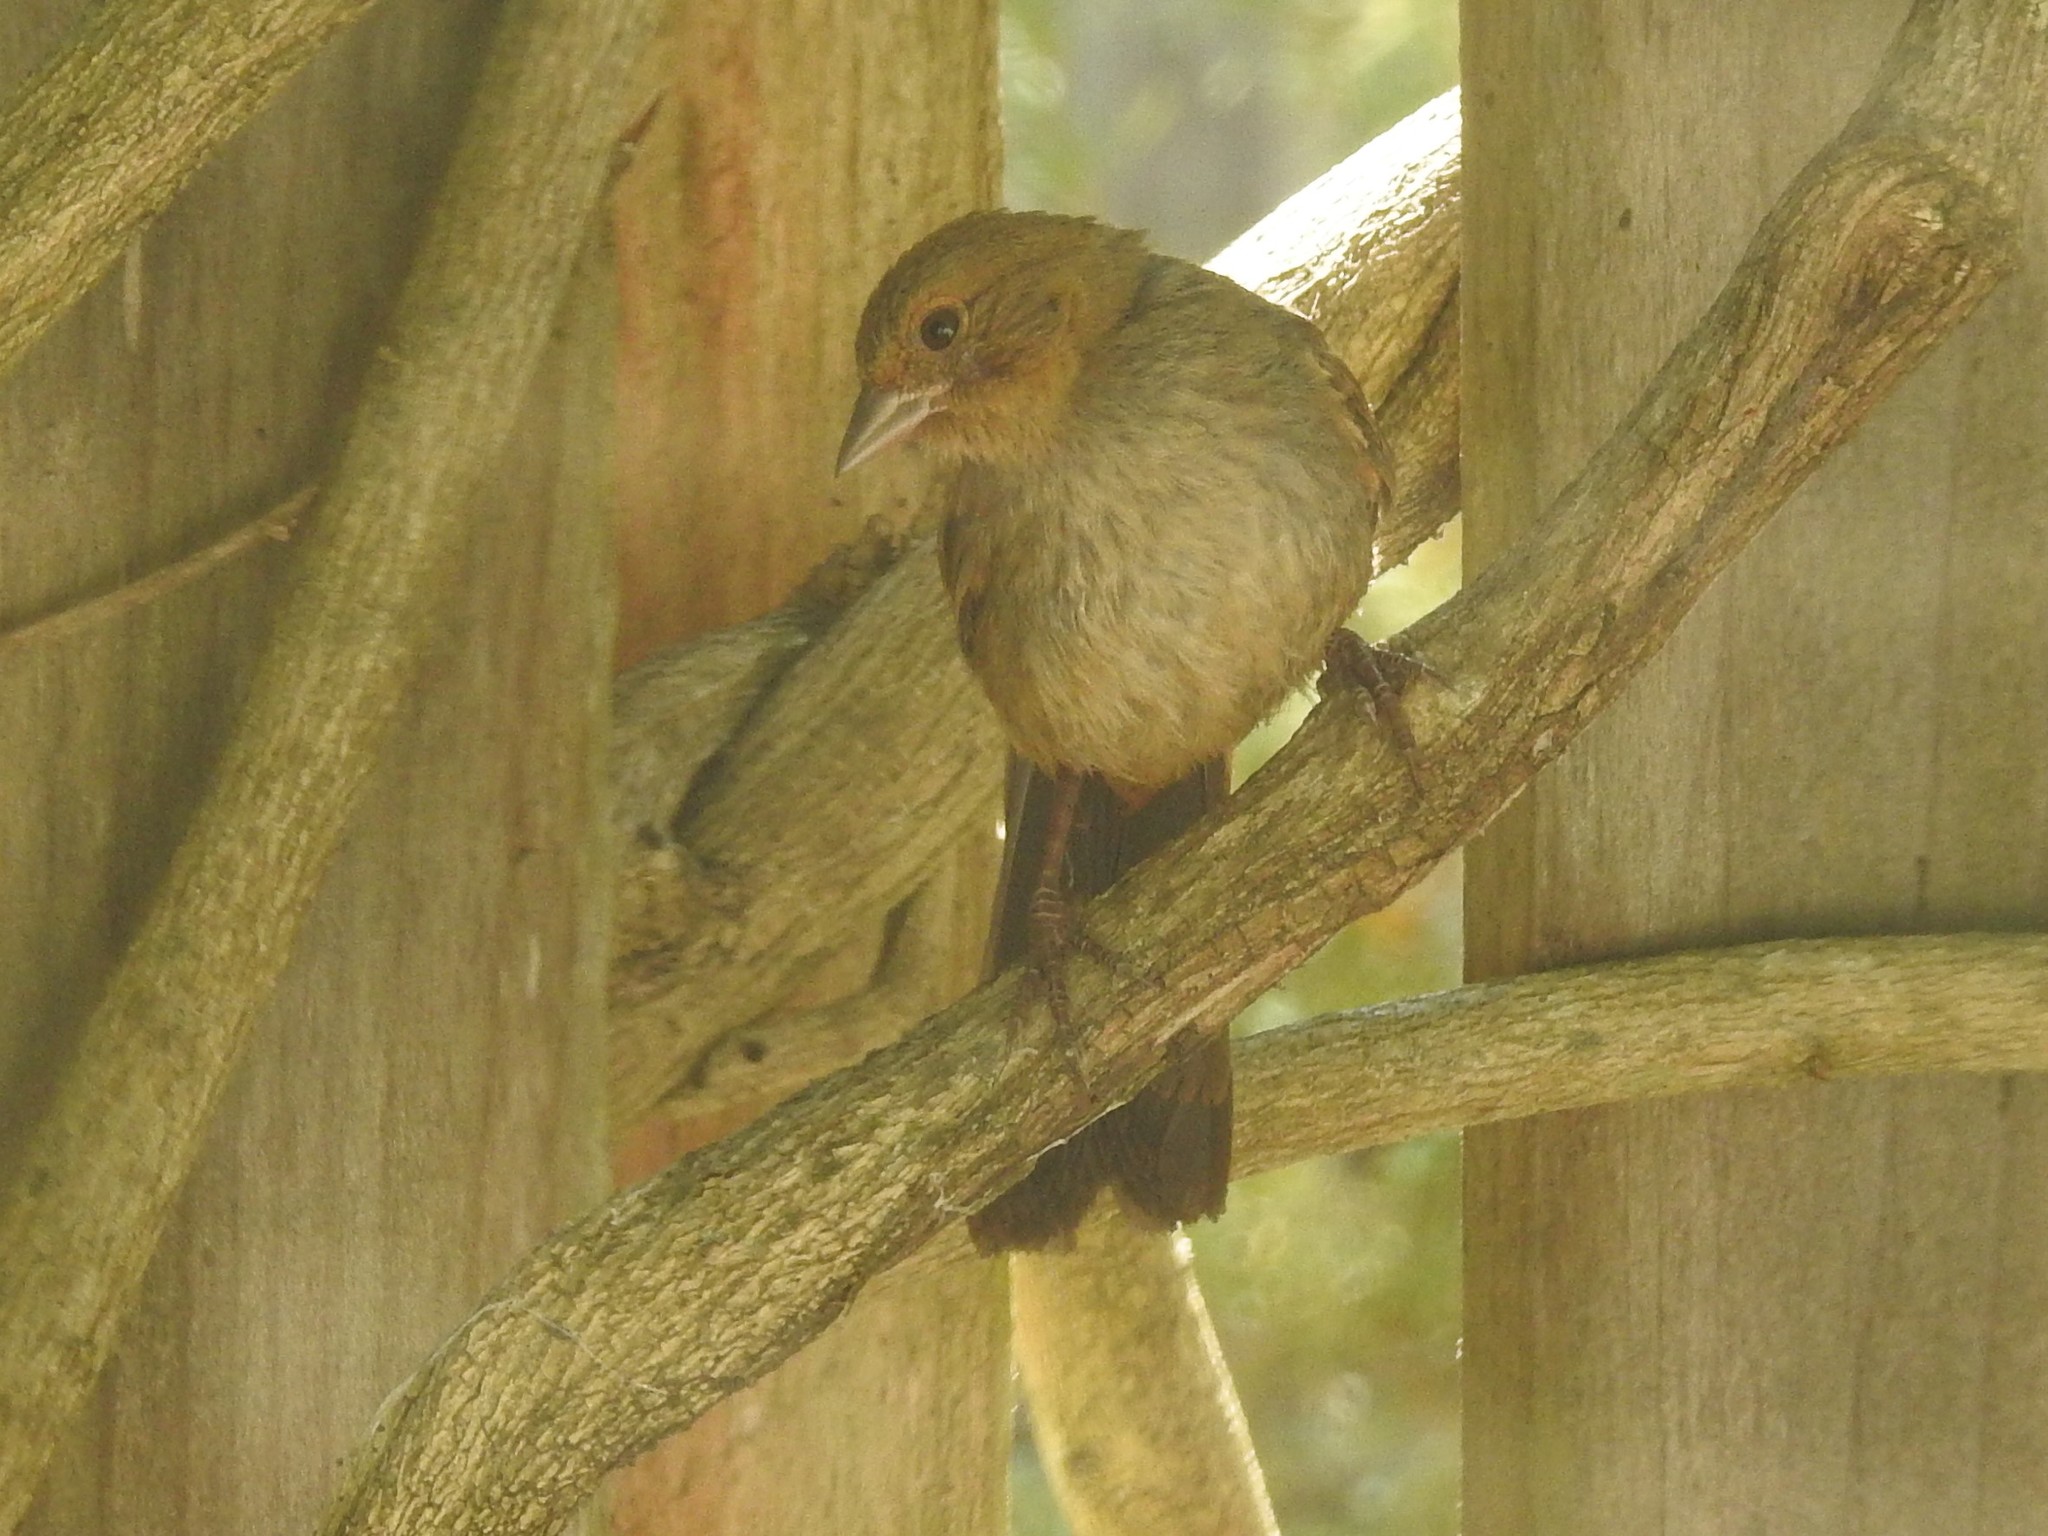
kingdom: Animalia
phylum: Chordata
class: Aves
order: Passeriformes
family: Passerellidae
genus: Melozone
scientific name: Melozone crissalis
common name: California towhee
